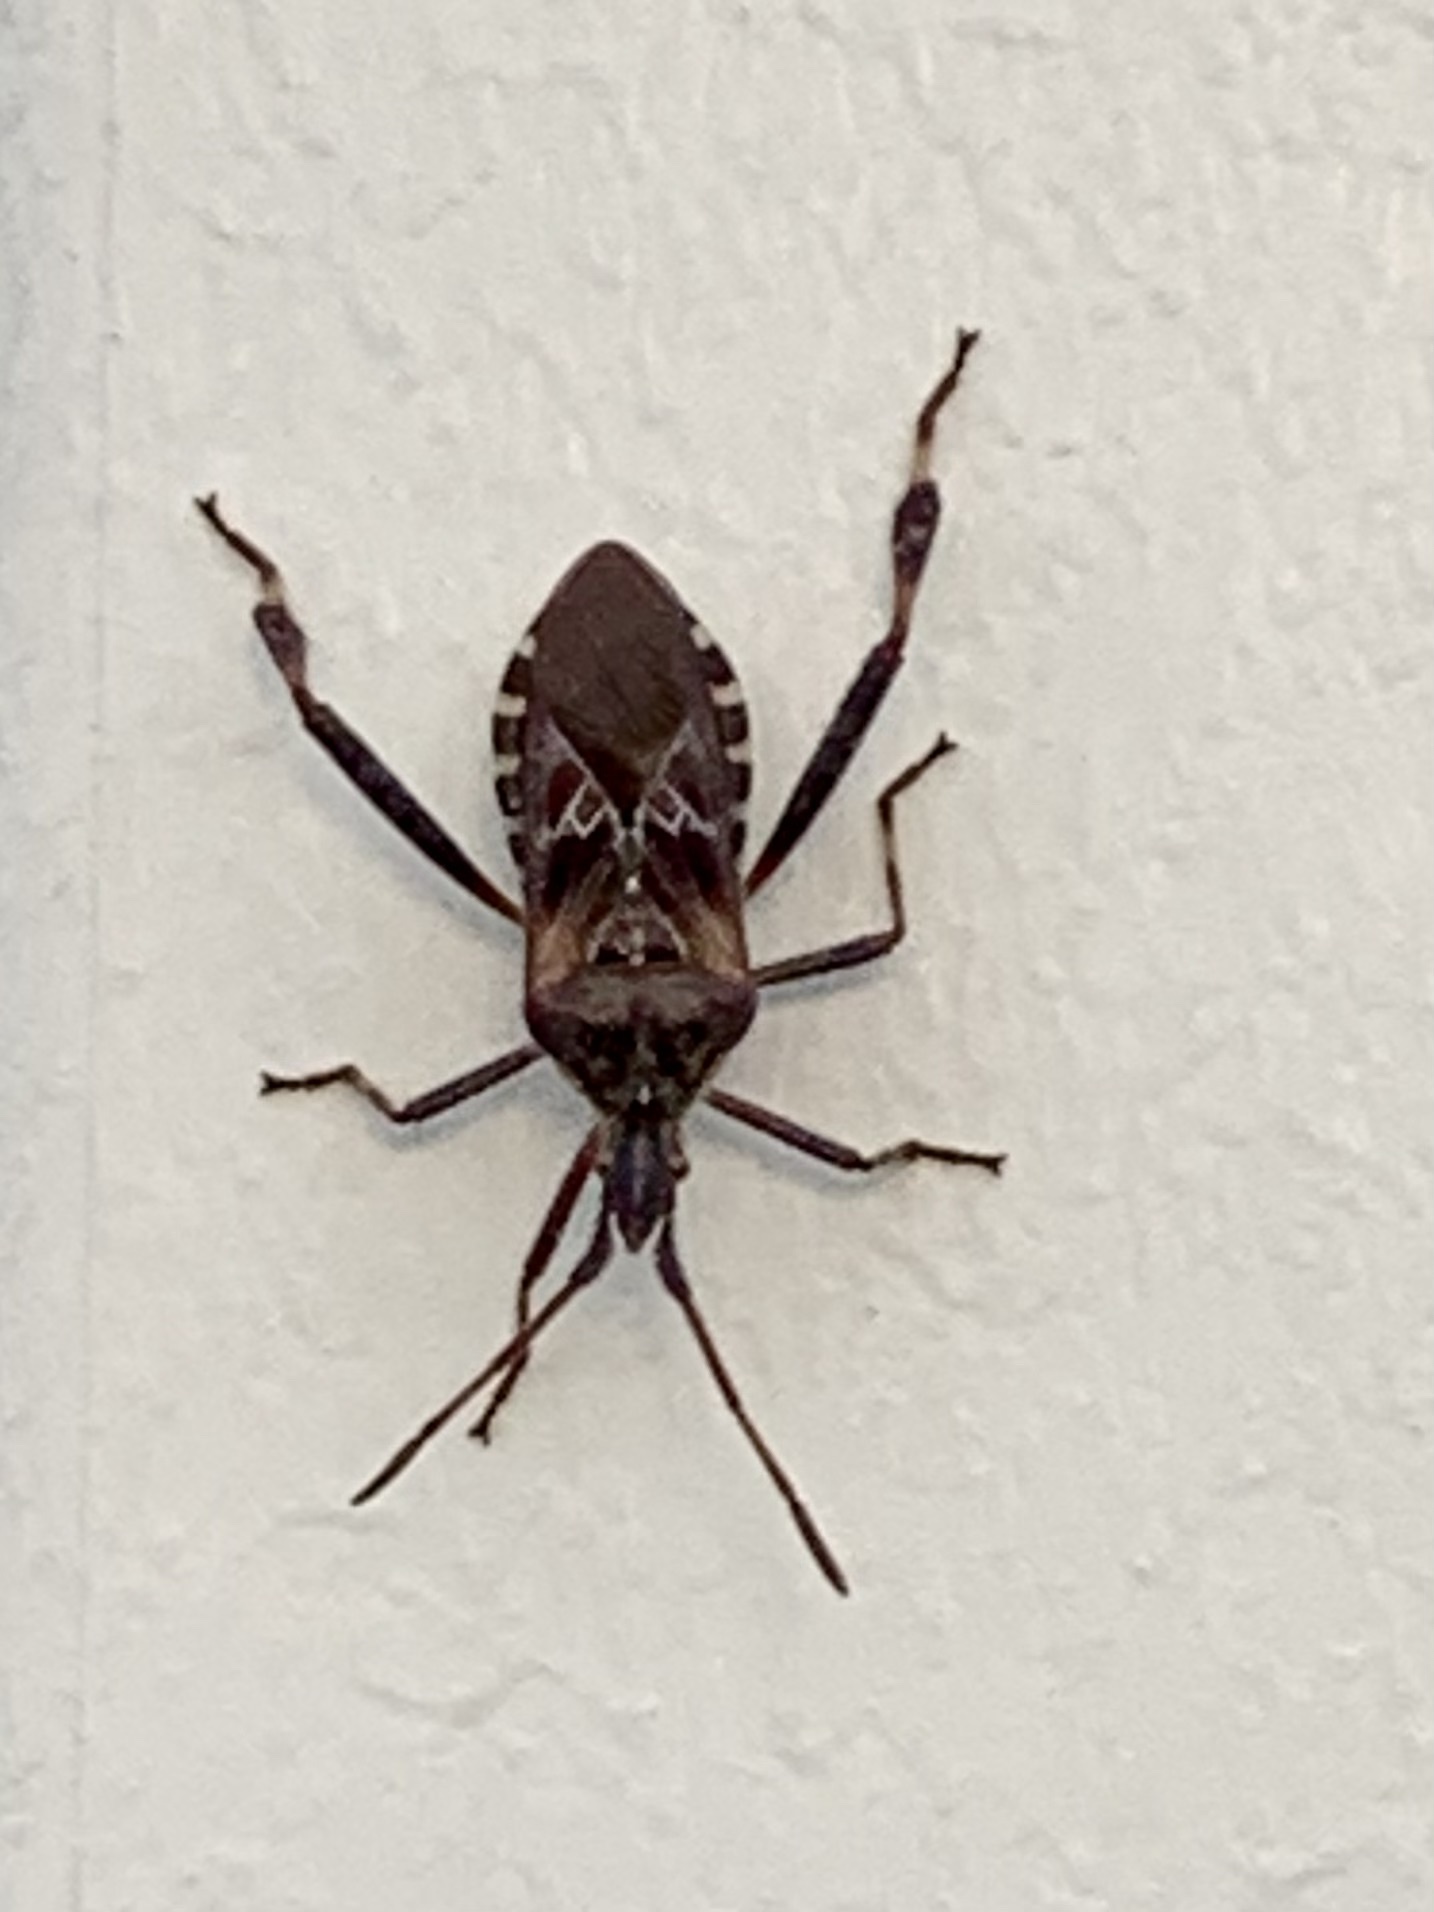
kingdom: Animalia
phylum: Arthropoda
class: Insecta
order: Hemiptera
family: Coreidae
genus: Leptoglossus
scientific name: Leptoglossus occidentalis
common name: Western conifer-seed bug
